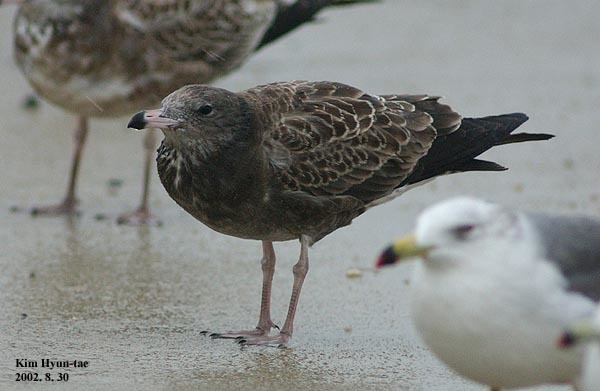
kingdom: Animalia
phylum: Chordata
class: Aves
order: Charadriiformes
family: Laridae
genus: Larus
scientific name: Larus crassirostris
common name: Black-tailed gull
